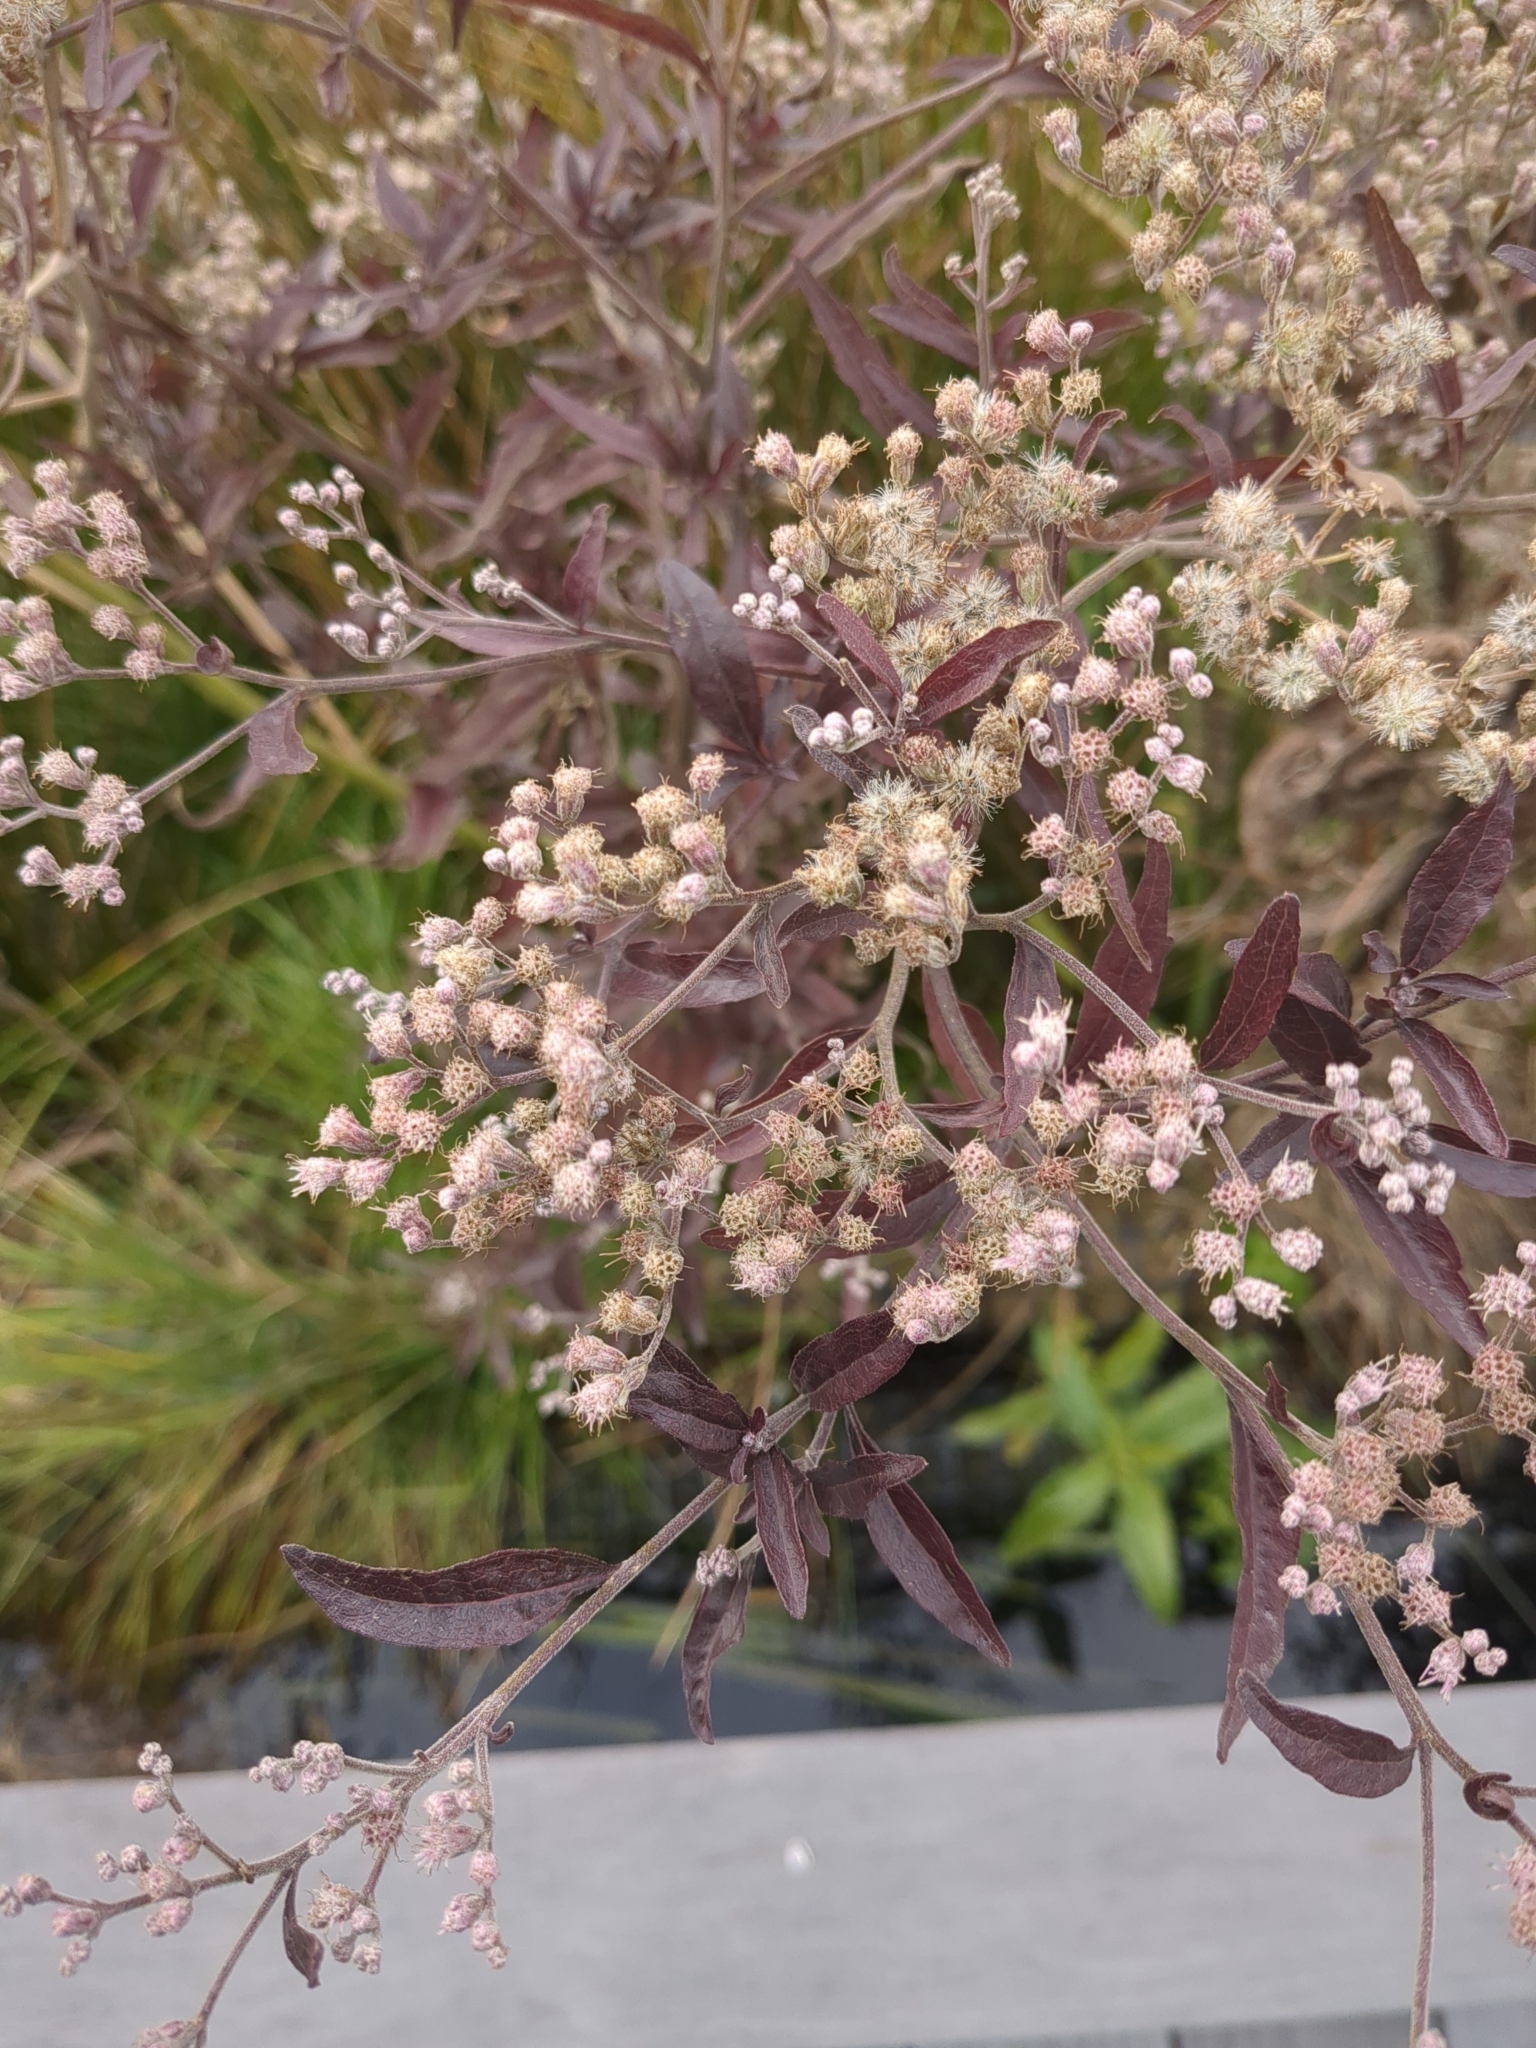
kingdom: Plantae
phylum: Tracheophyta
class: Magnoliopsida
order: Asterales
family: Asteraceae
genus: Eupatorium
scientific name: Eupatorium serotinum
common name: Late boneset
